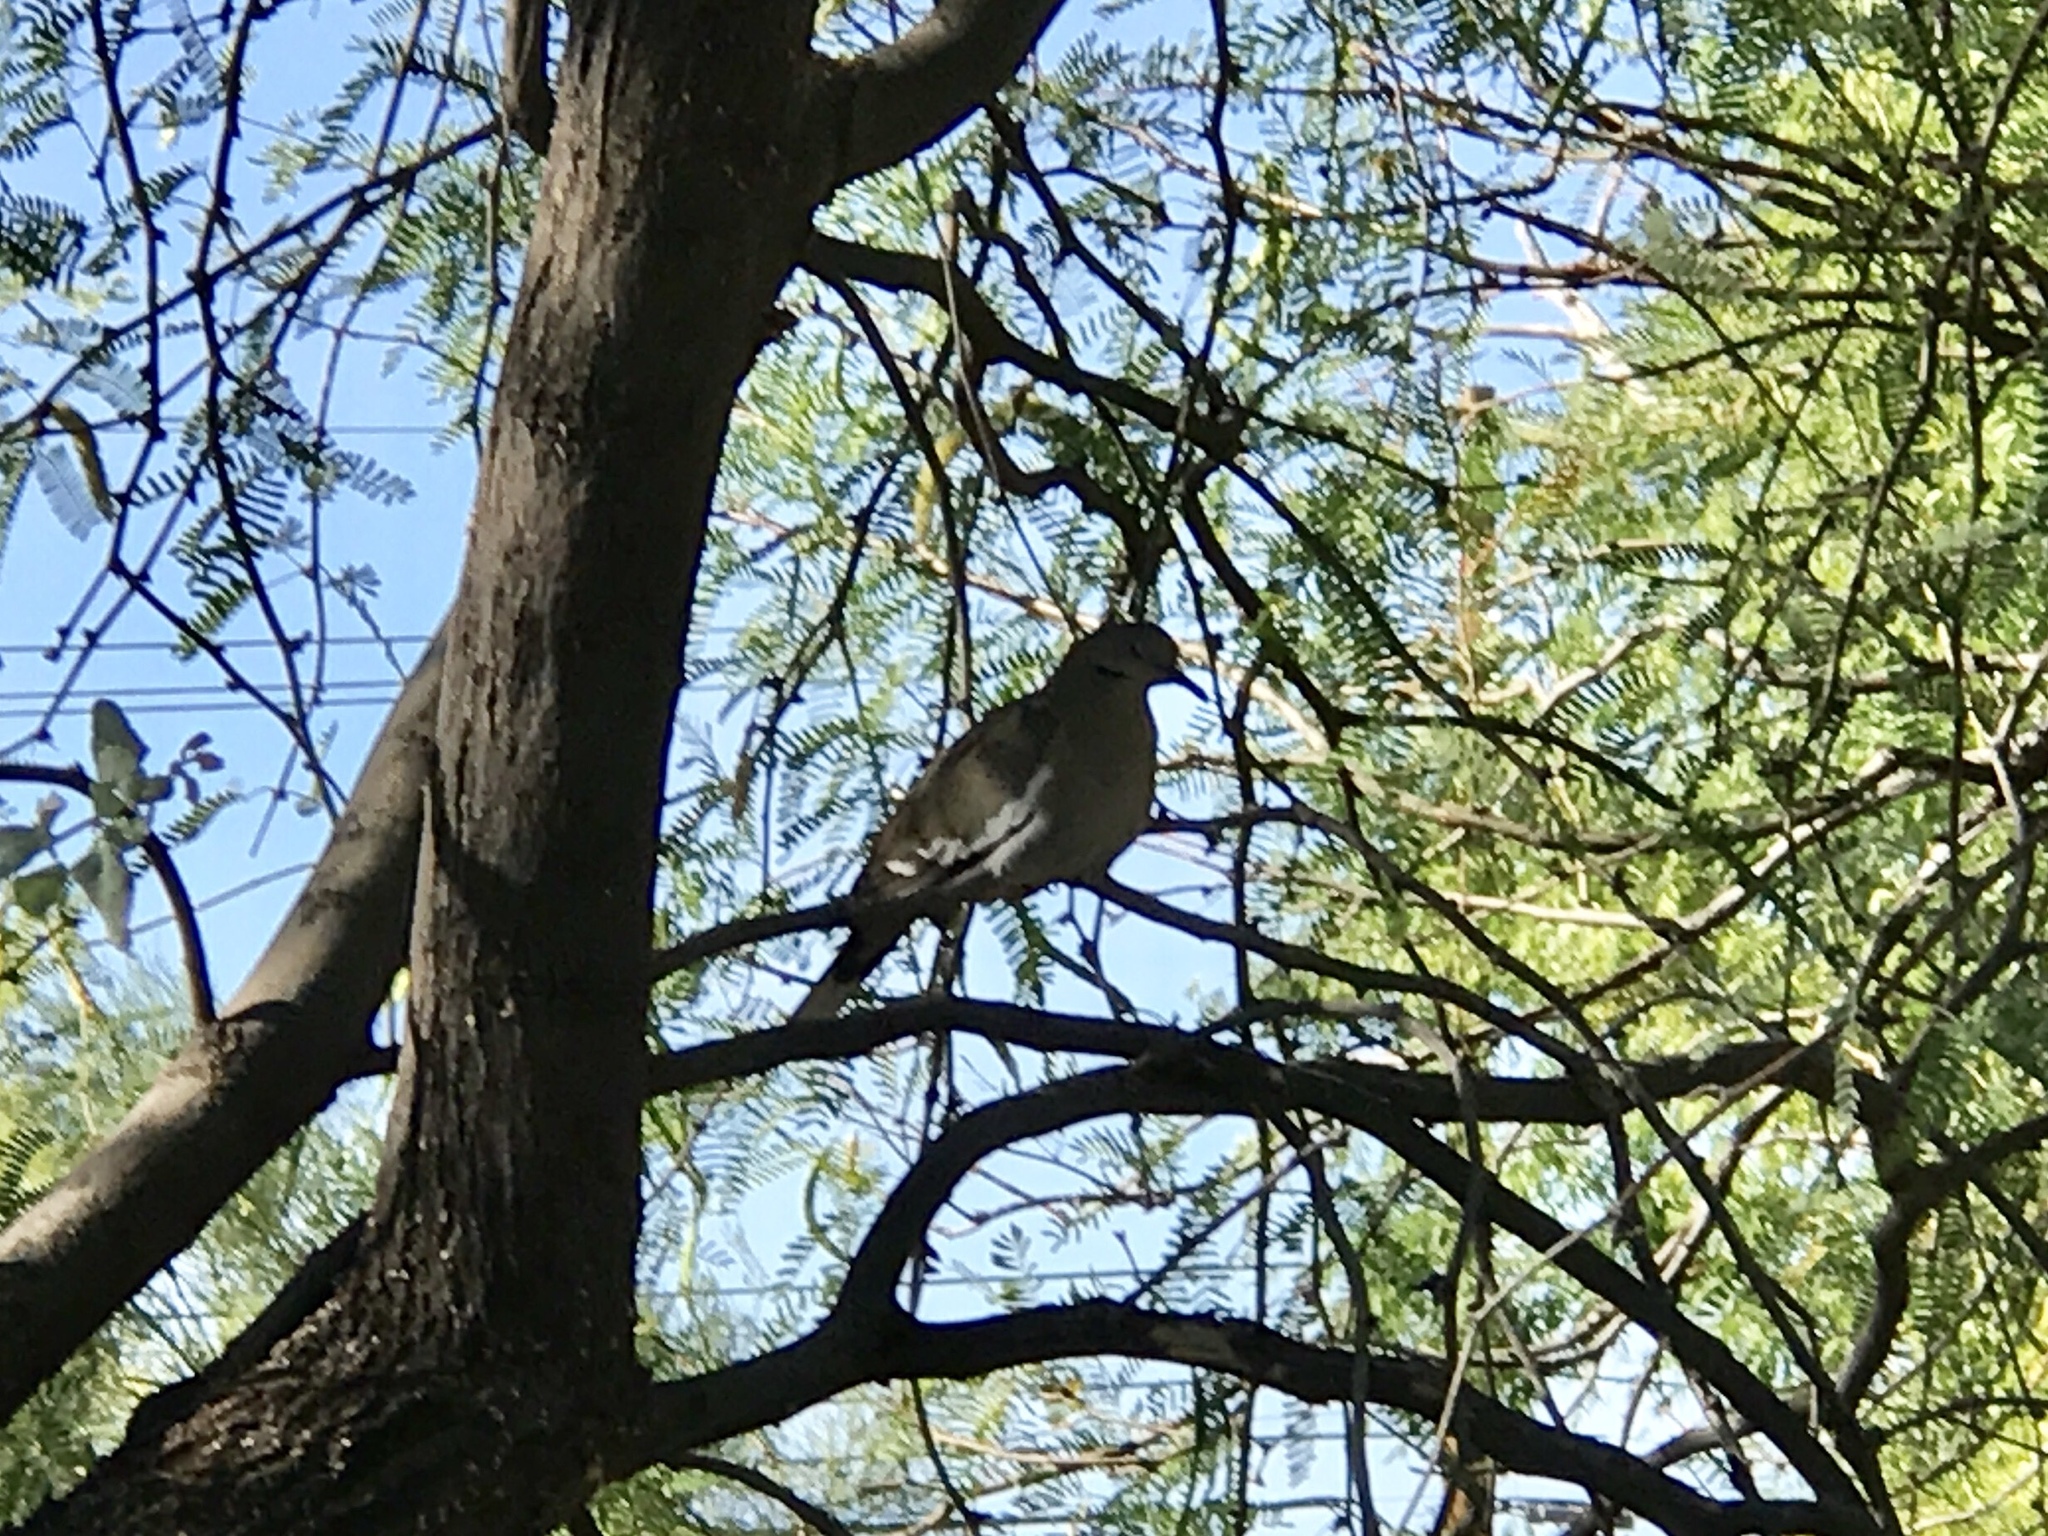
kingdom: Animalia
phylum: Chordata
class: Aves
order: Columbiformes
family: Columbidae
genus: Zenaida
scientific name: Zenaida asiatica
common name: White-winged dove
